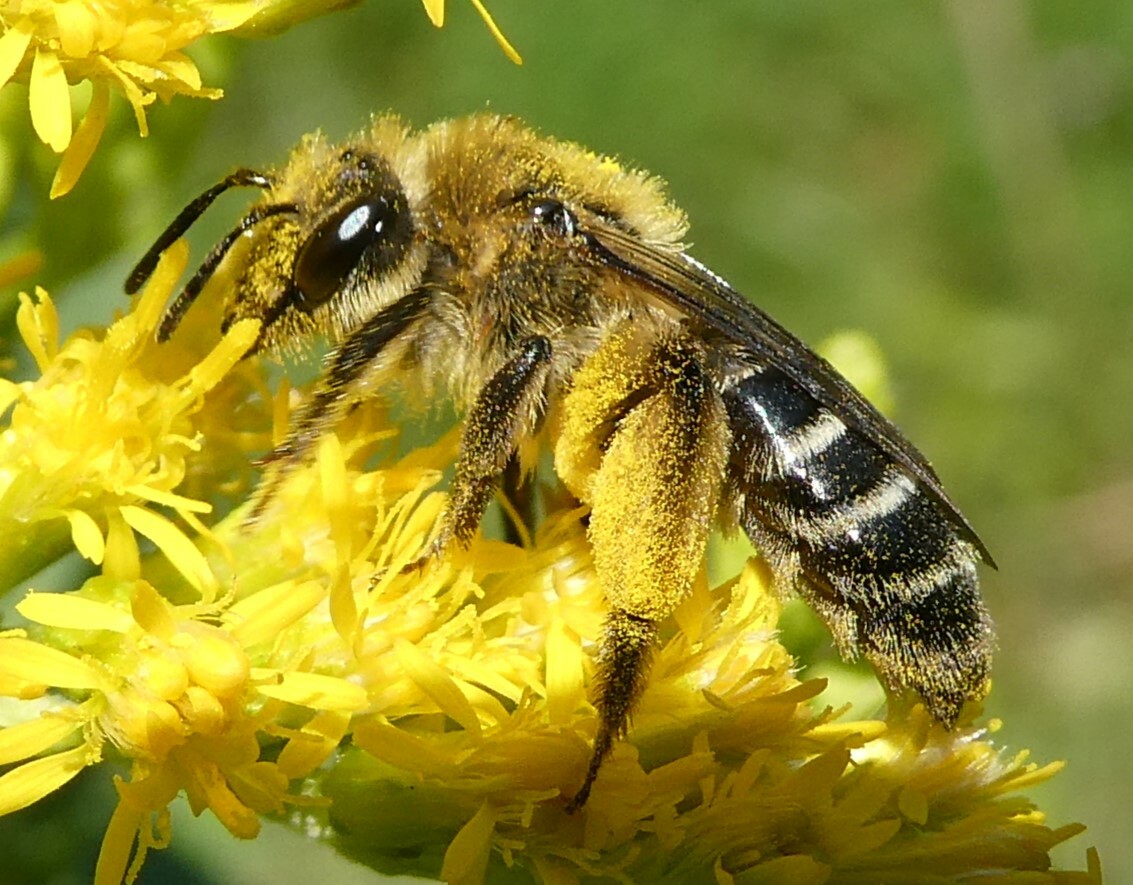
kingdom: Animalia
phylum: Arthropoda
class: Insecta
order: Hymenoptera
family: Andrenidae
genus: Andrena
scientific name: Andrena asteris
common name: Aster mining bee
